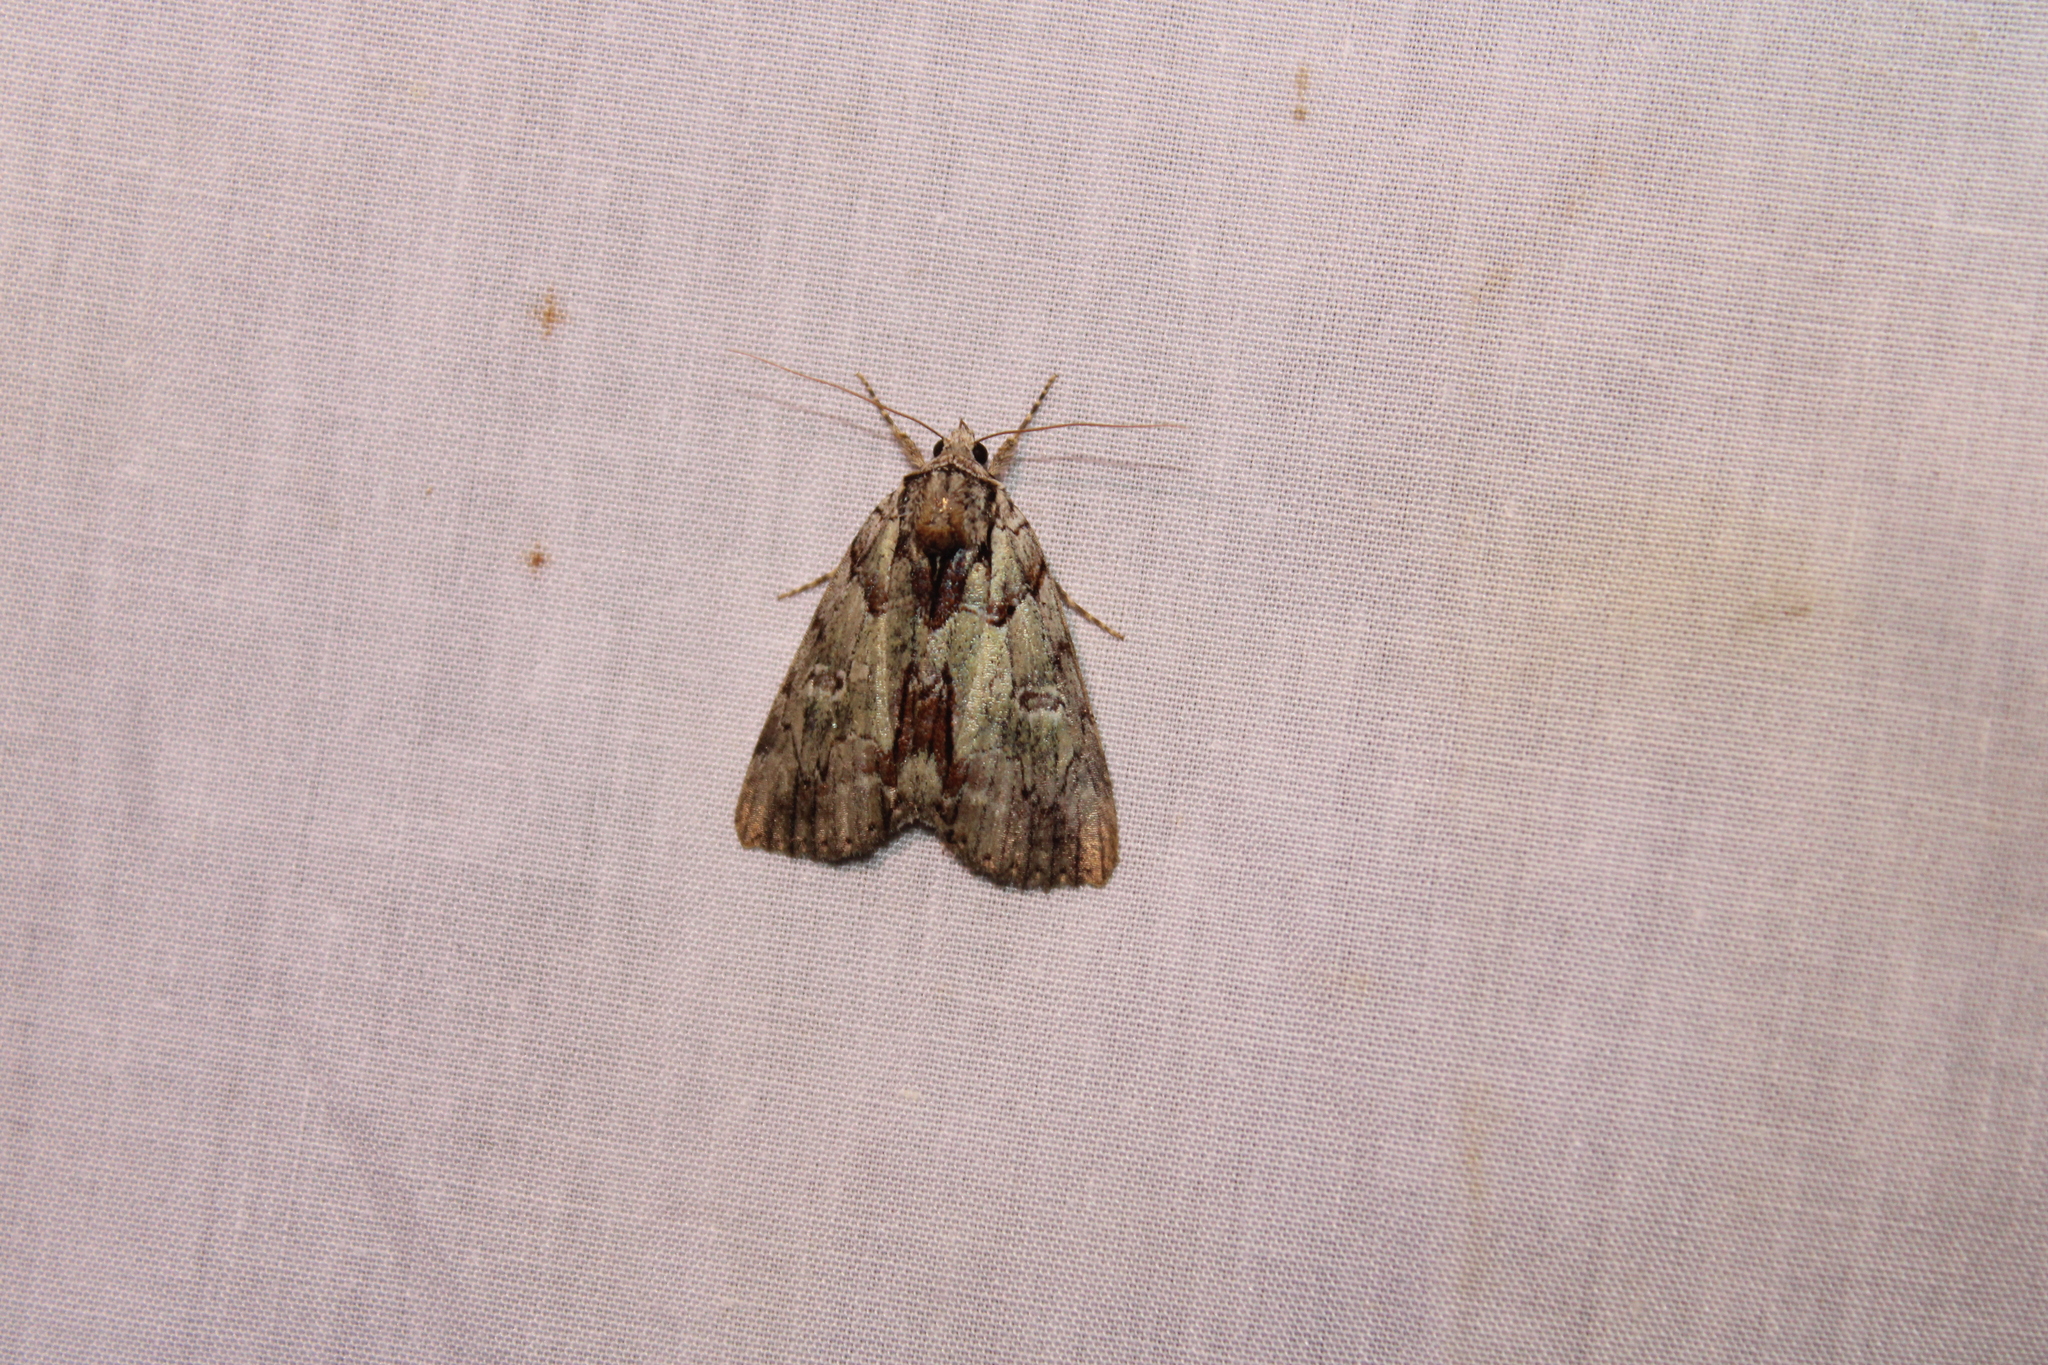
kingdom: Animalia
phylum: Arthropoda
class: Insecta
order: Lepidoptera
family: Erebidae
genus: Catocala
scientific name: Catocala praeclara
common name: Praeclara underwing
